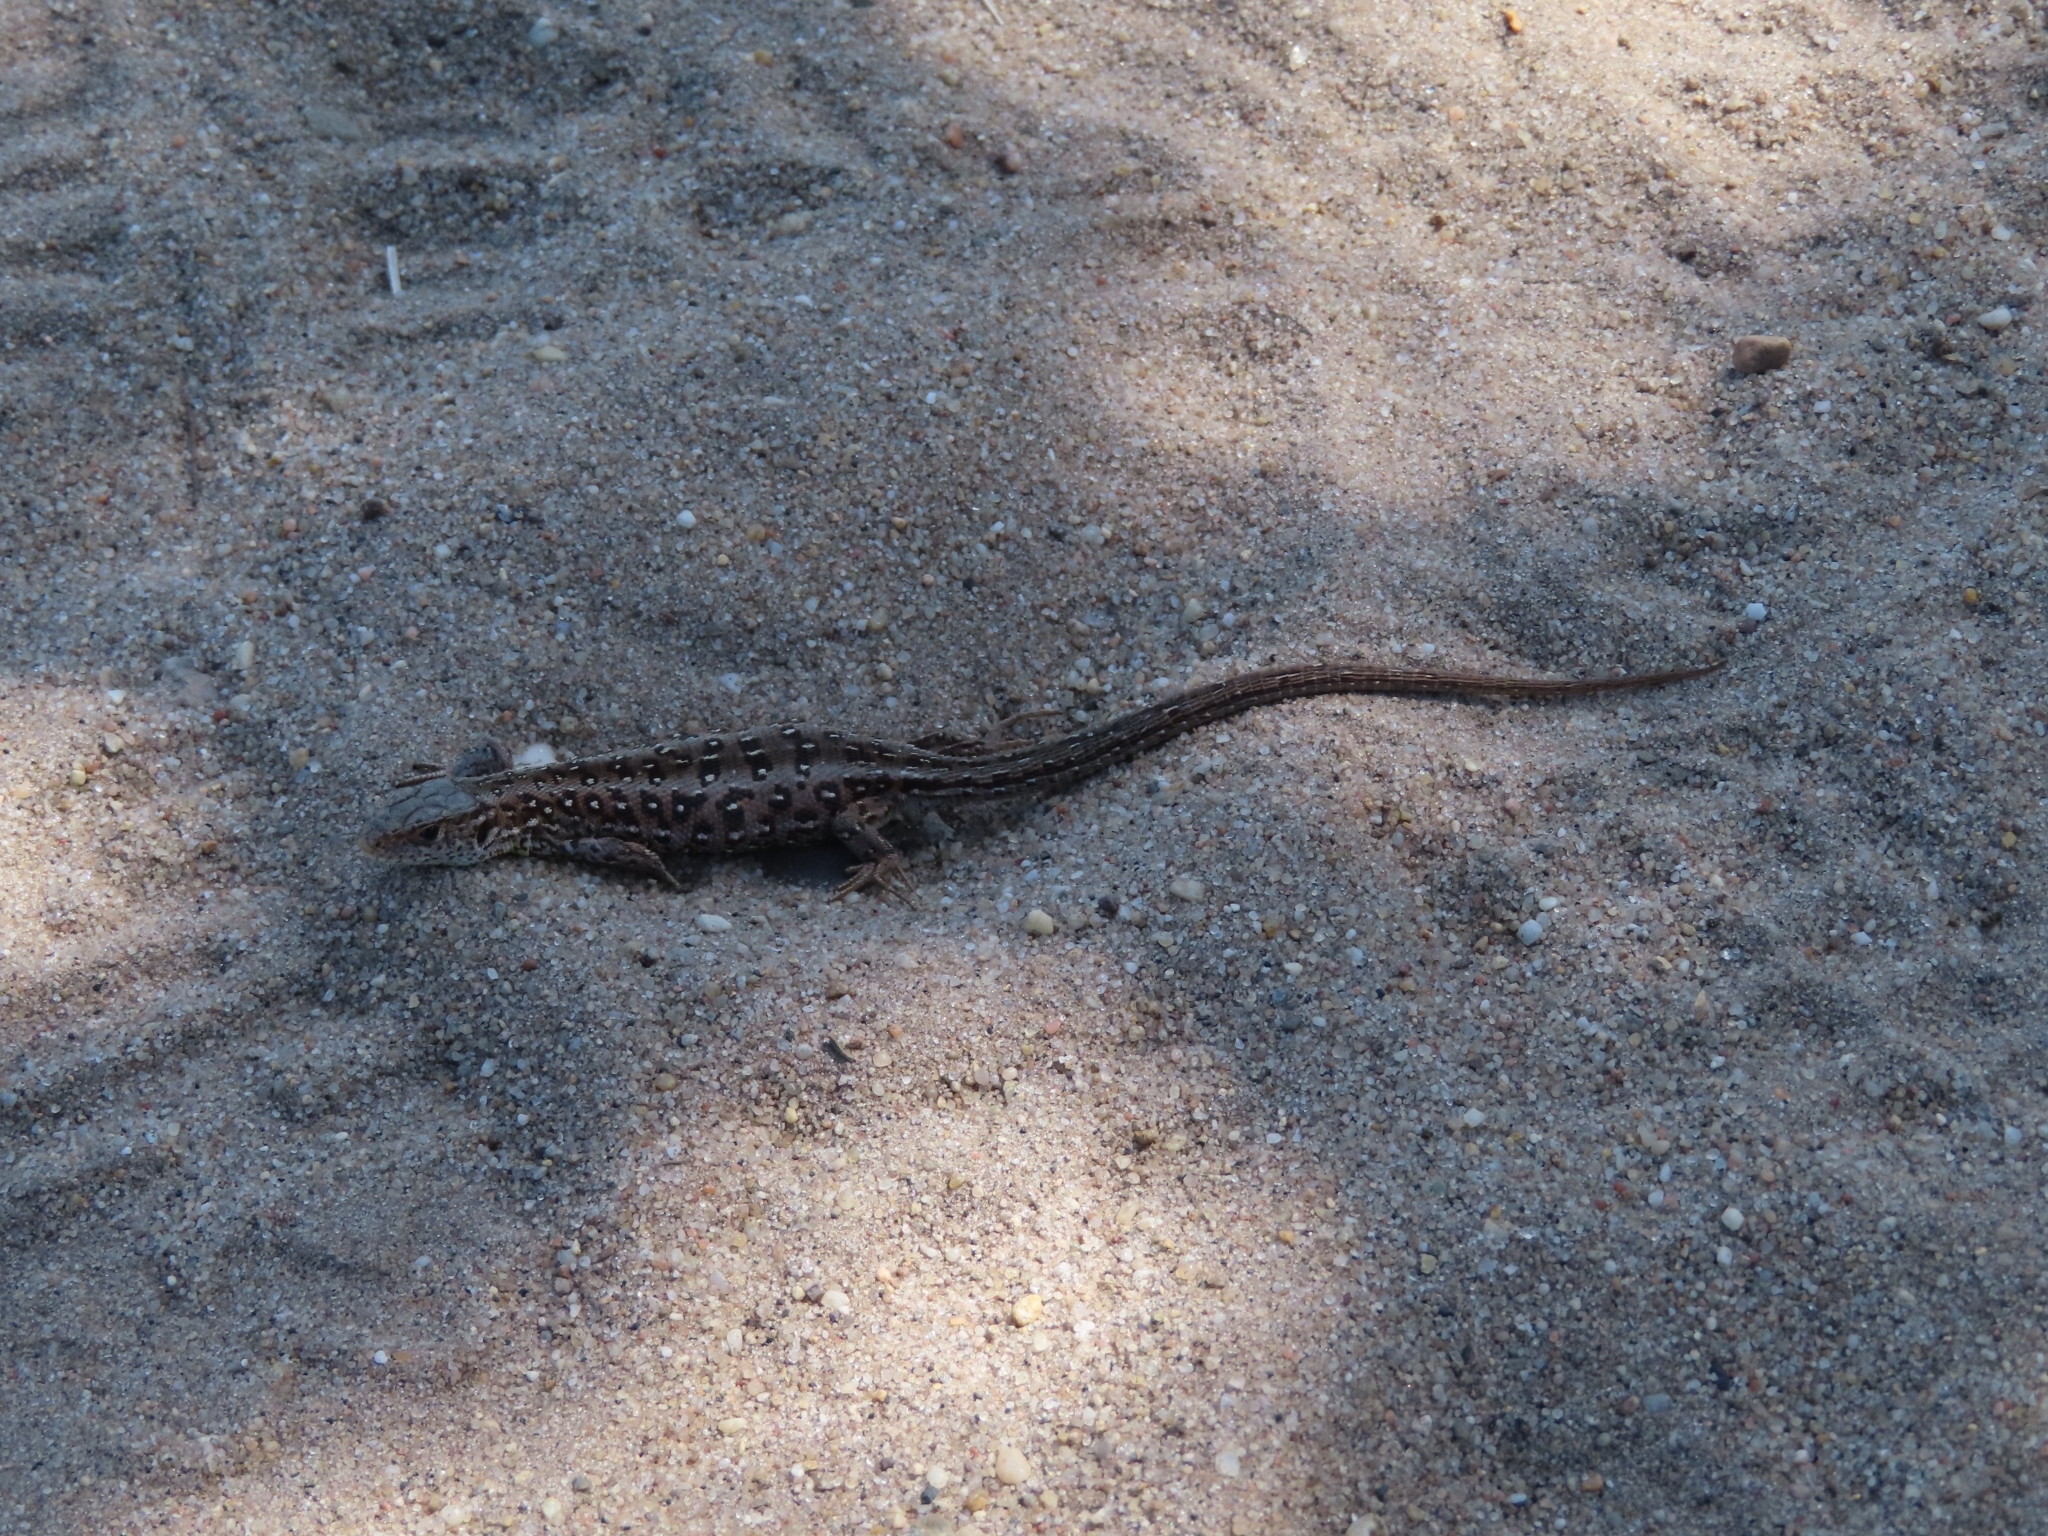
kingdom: Animalia
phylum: Chordata
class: Squamata
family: Lacertidae
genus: Lacerta
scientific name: Lacerta agilis
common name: Sand lizard
